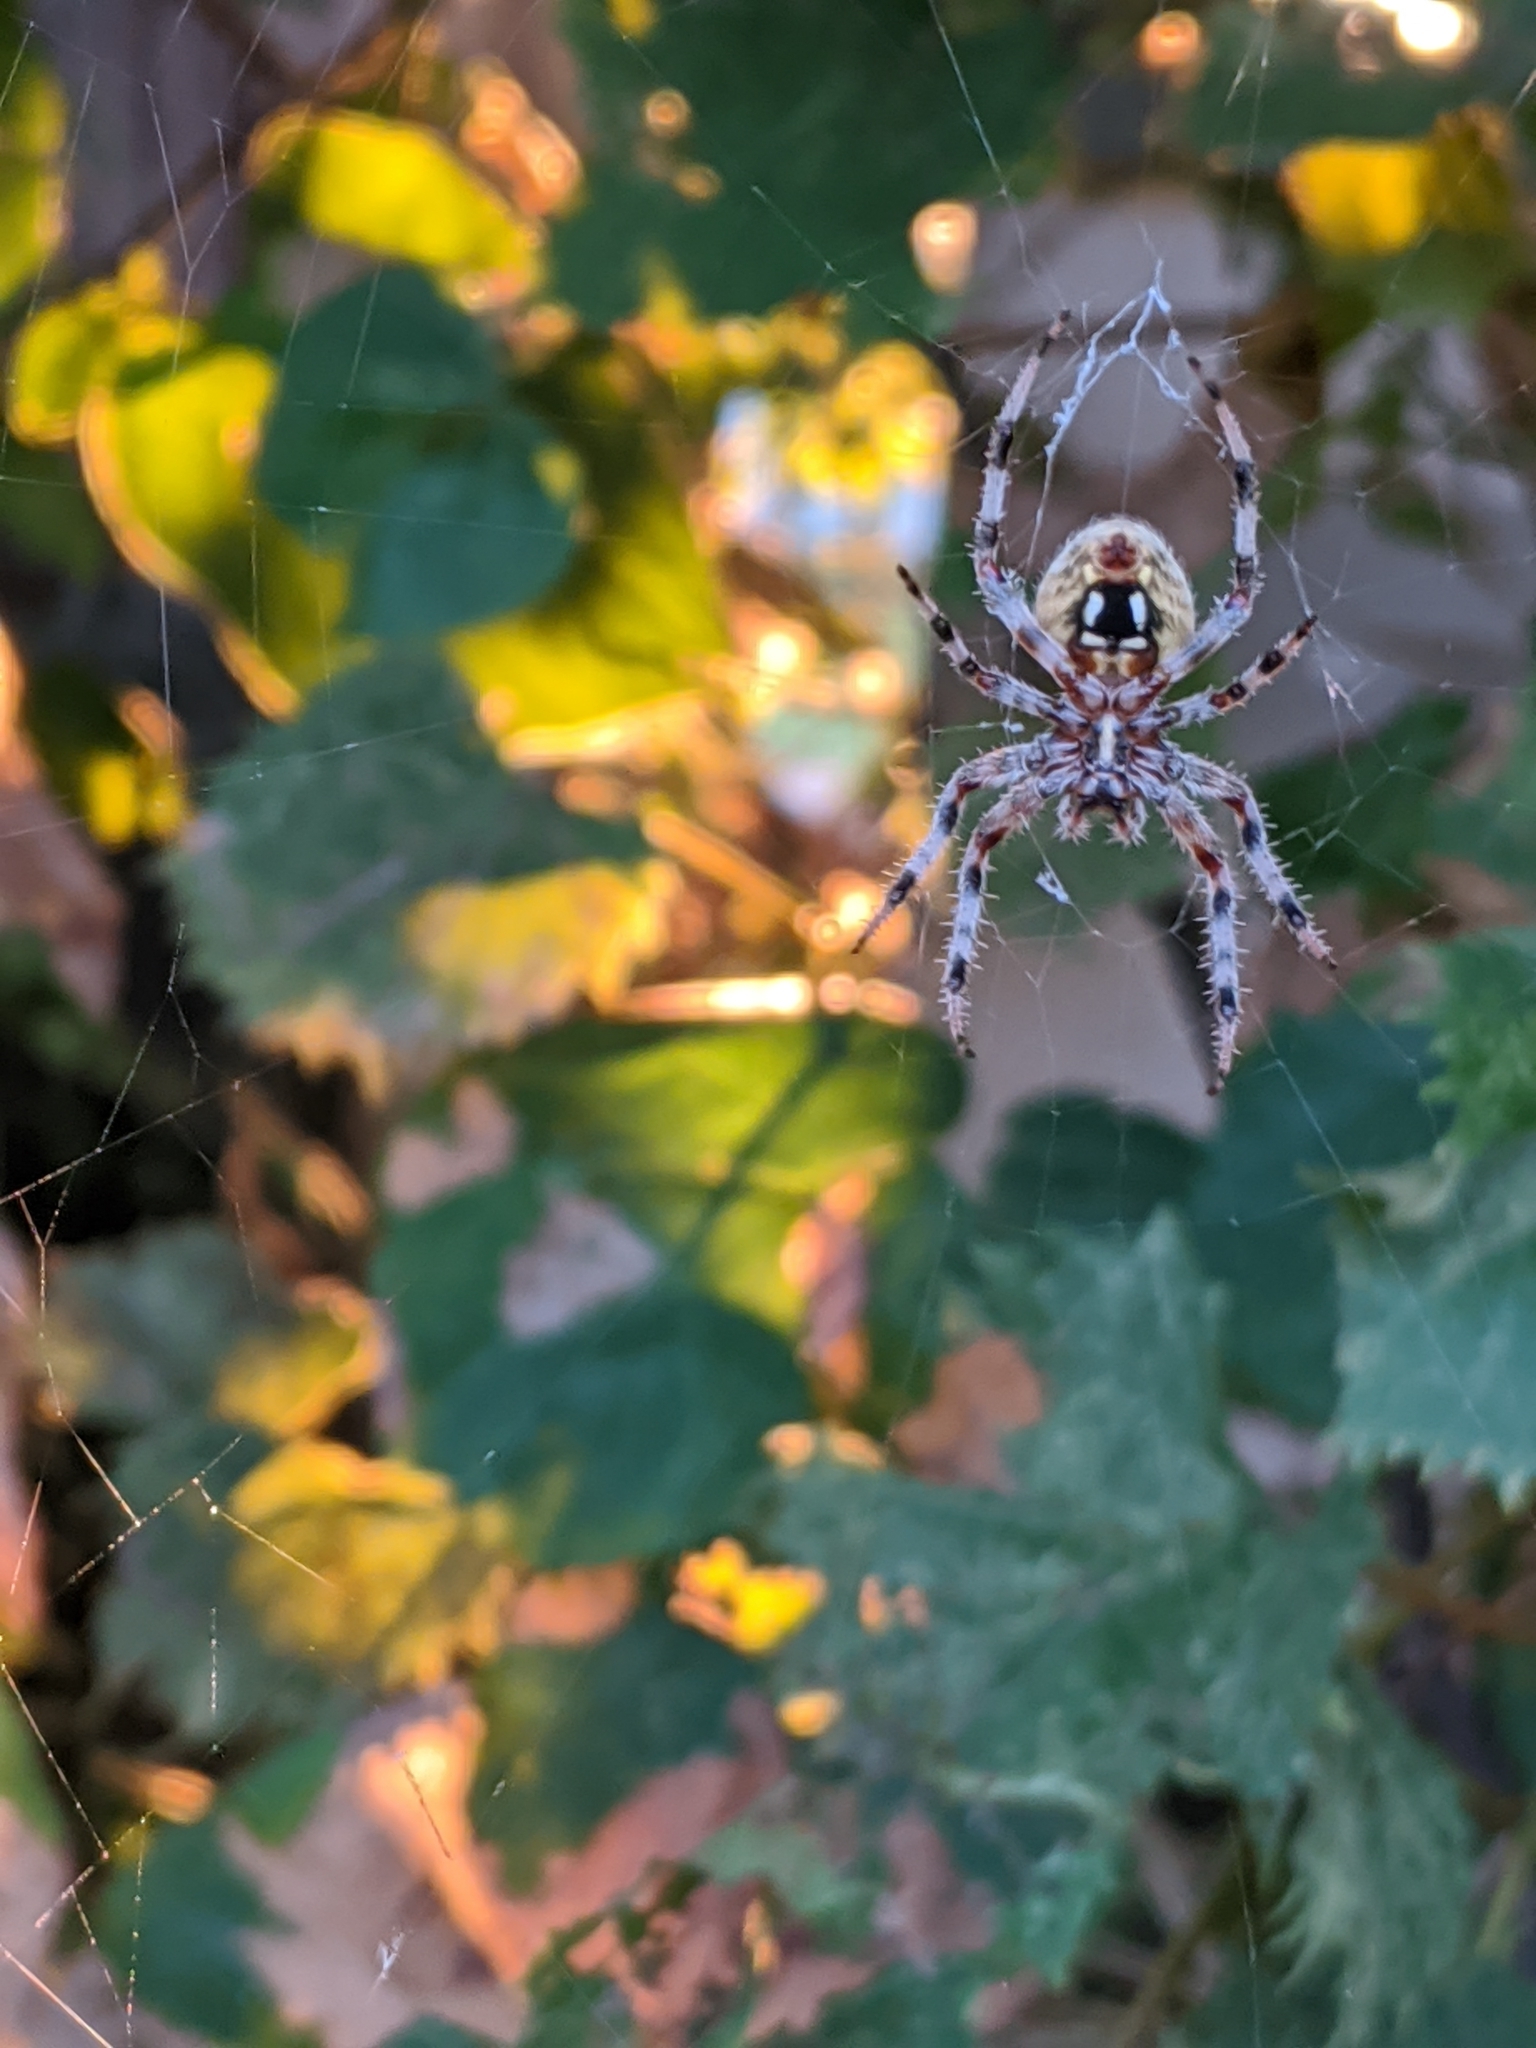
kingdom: Animalia
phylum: Arthropoda
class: Arachnida
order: Araneae
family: Araneidae
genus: Neoscona
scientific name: Neoscona crucifera
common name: Spotted orbweaver
